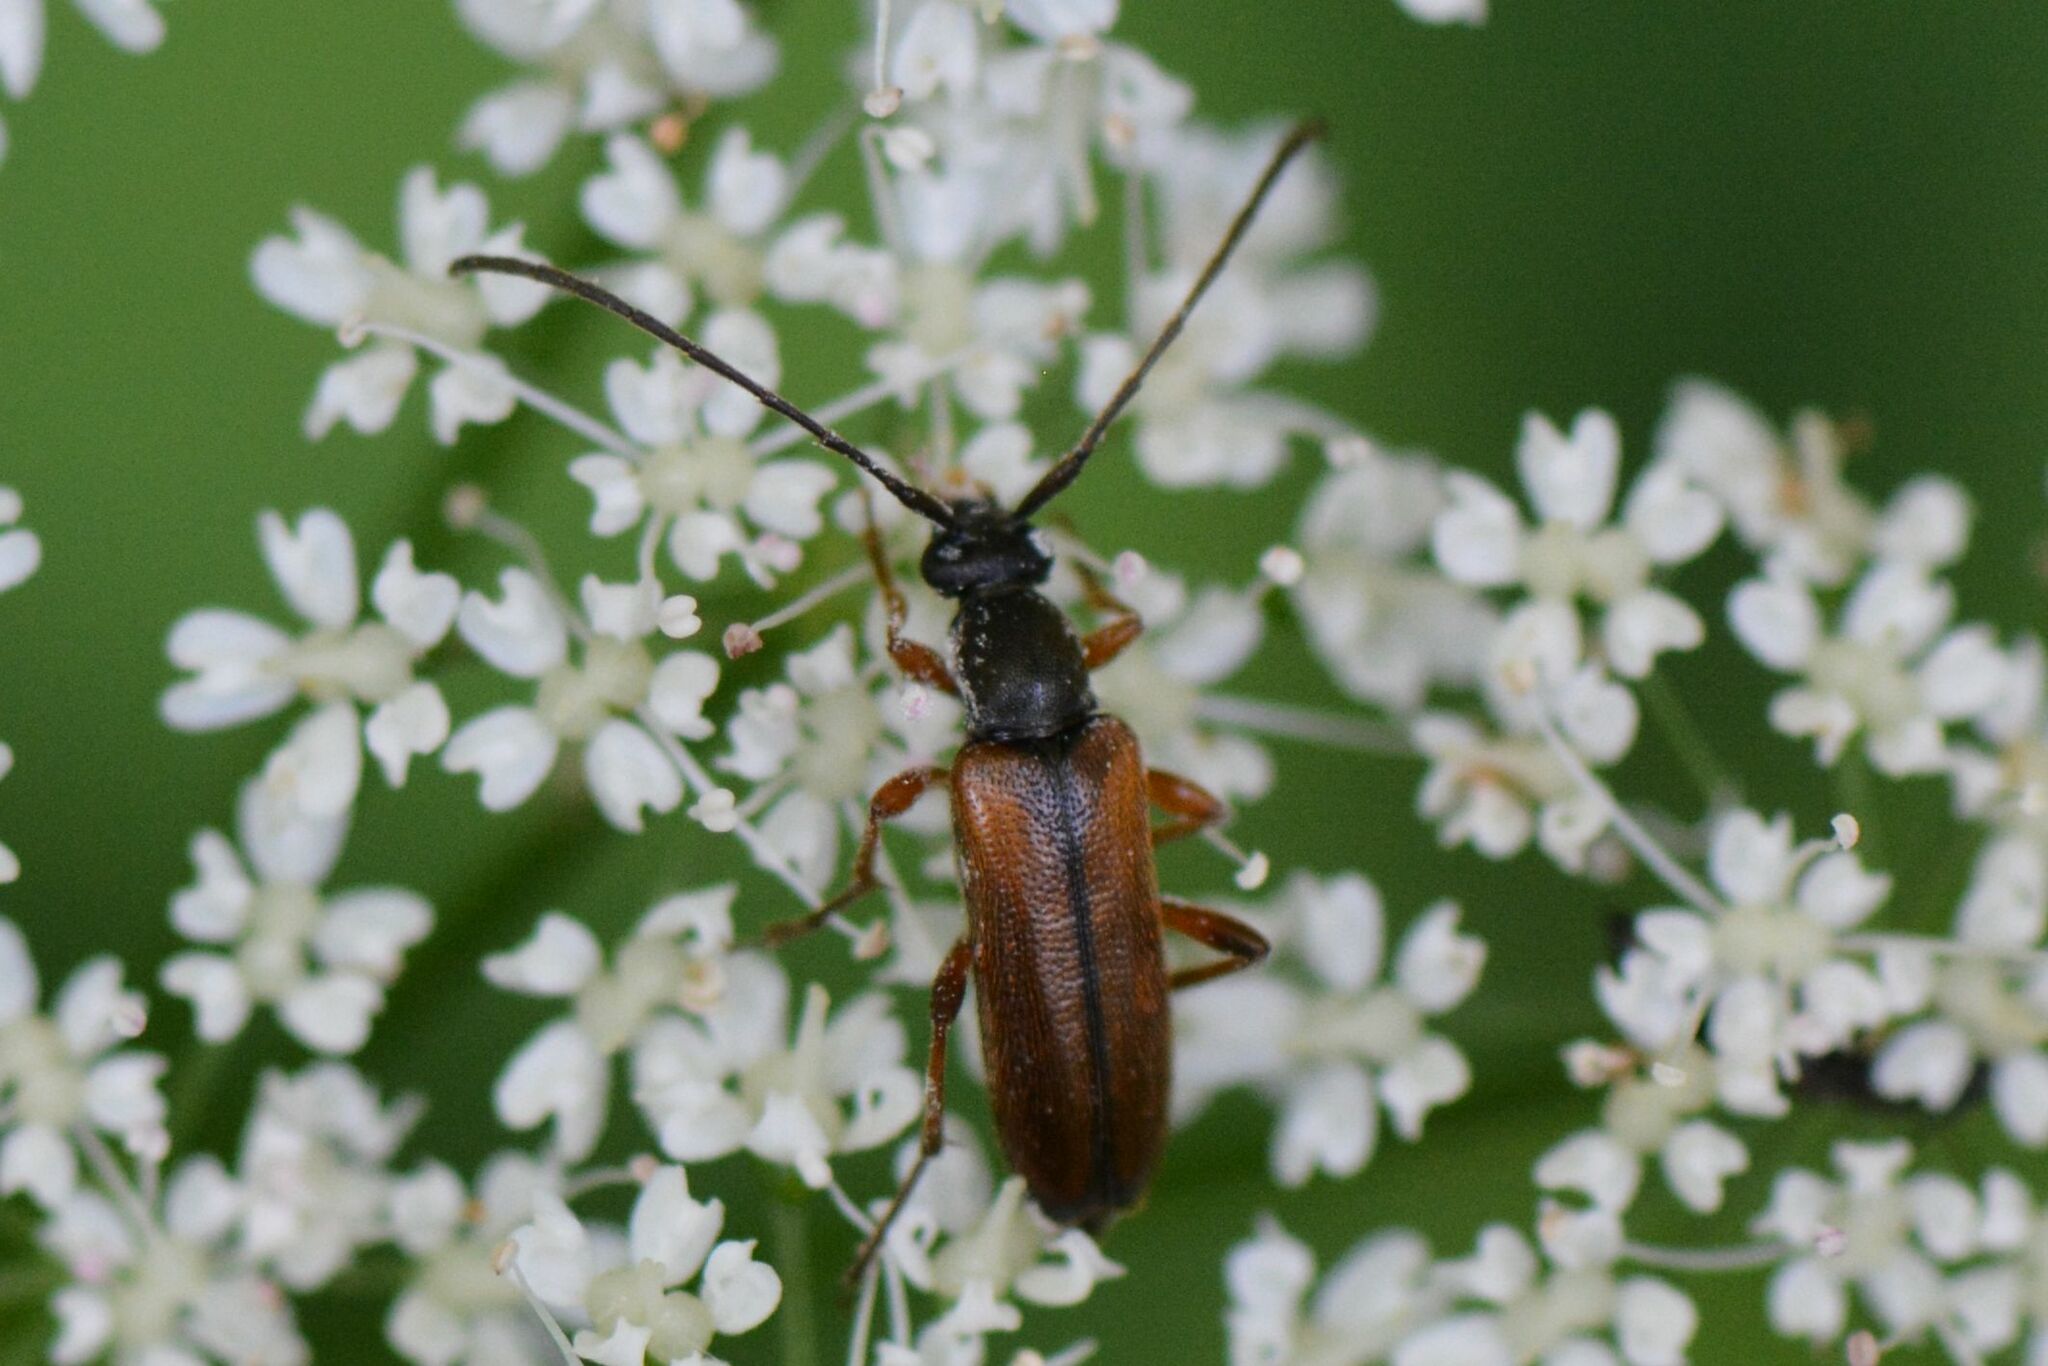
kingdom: Animalia
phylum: Arthropoda
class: Insecta
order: Coleoptera
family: Cerambycidae
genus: Alosterna
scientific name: Alosterna tabacicolor
